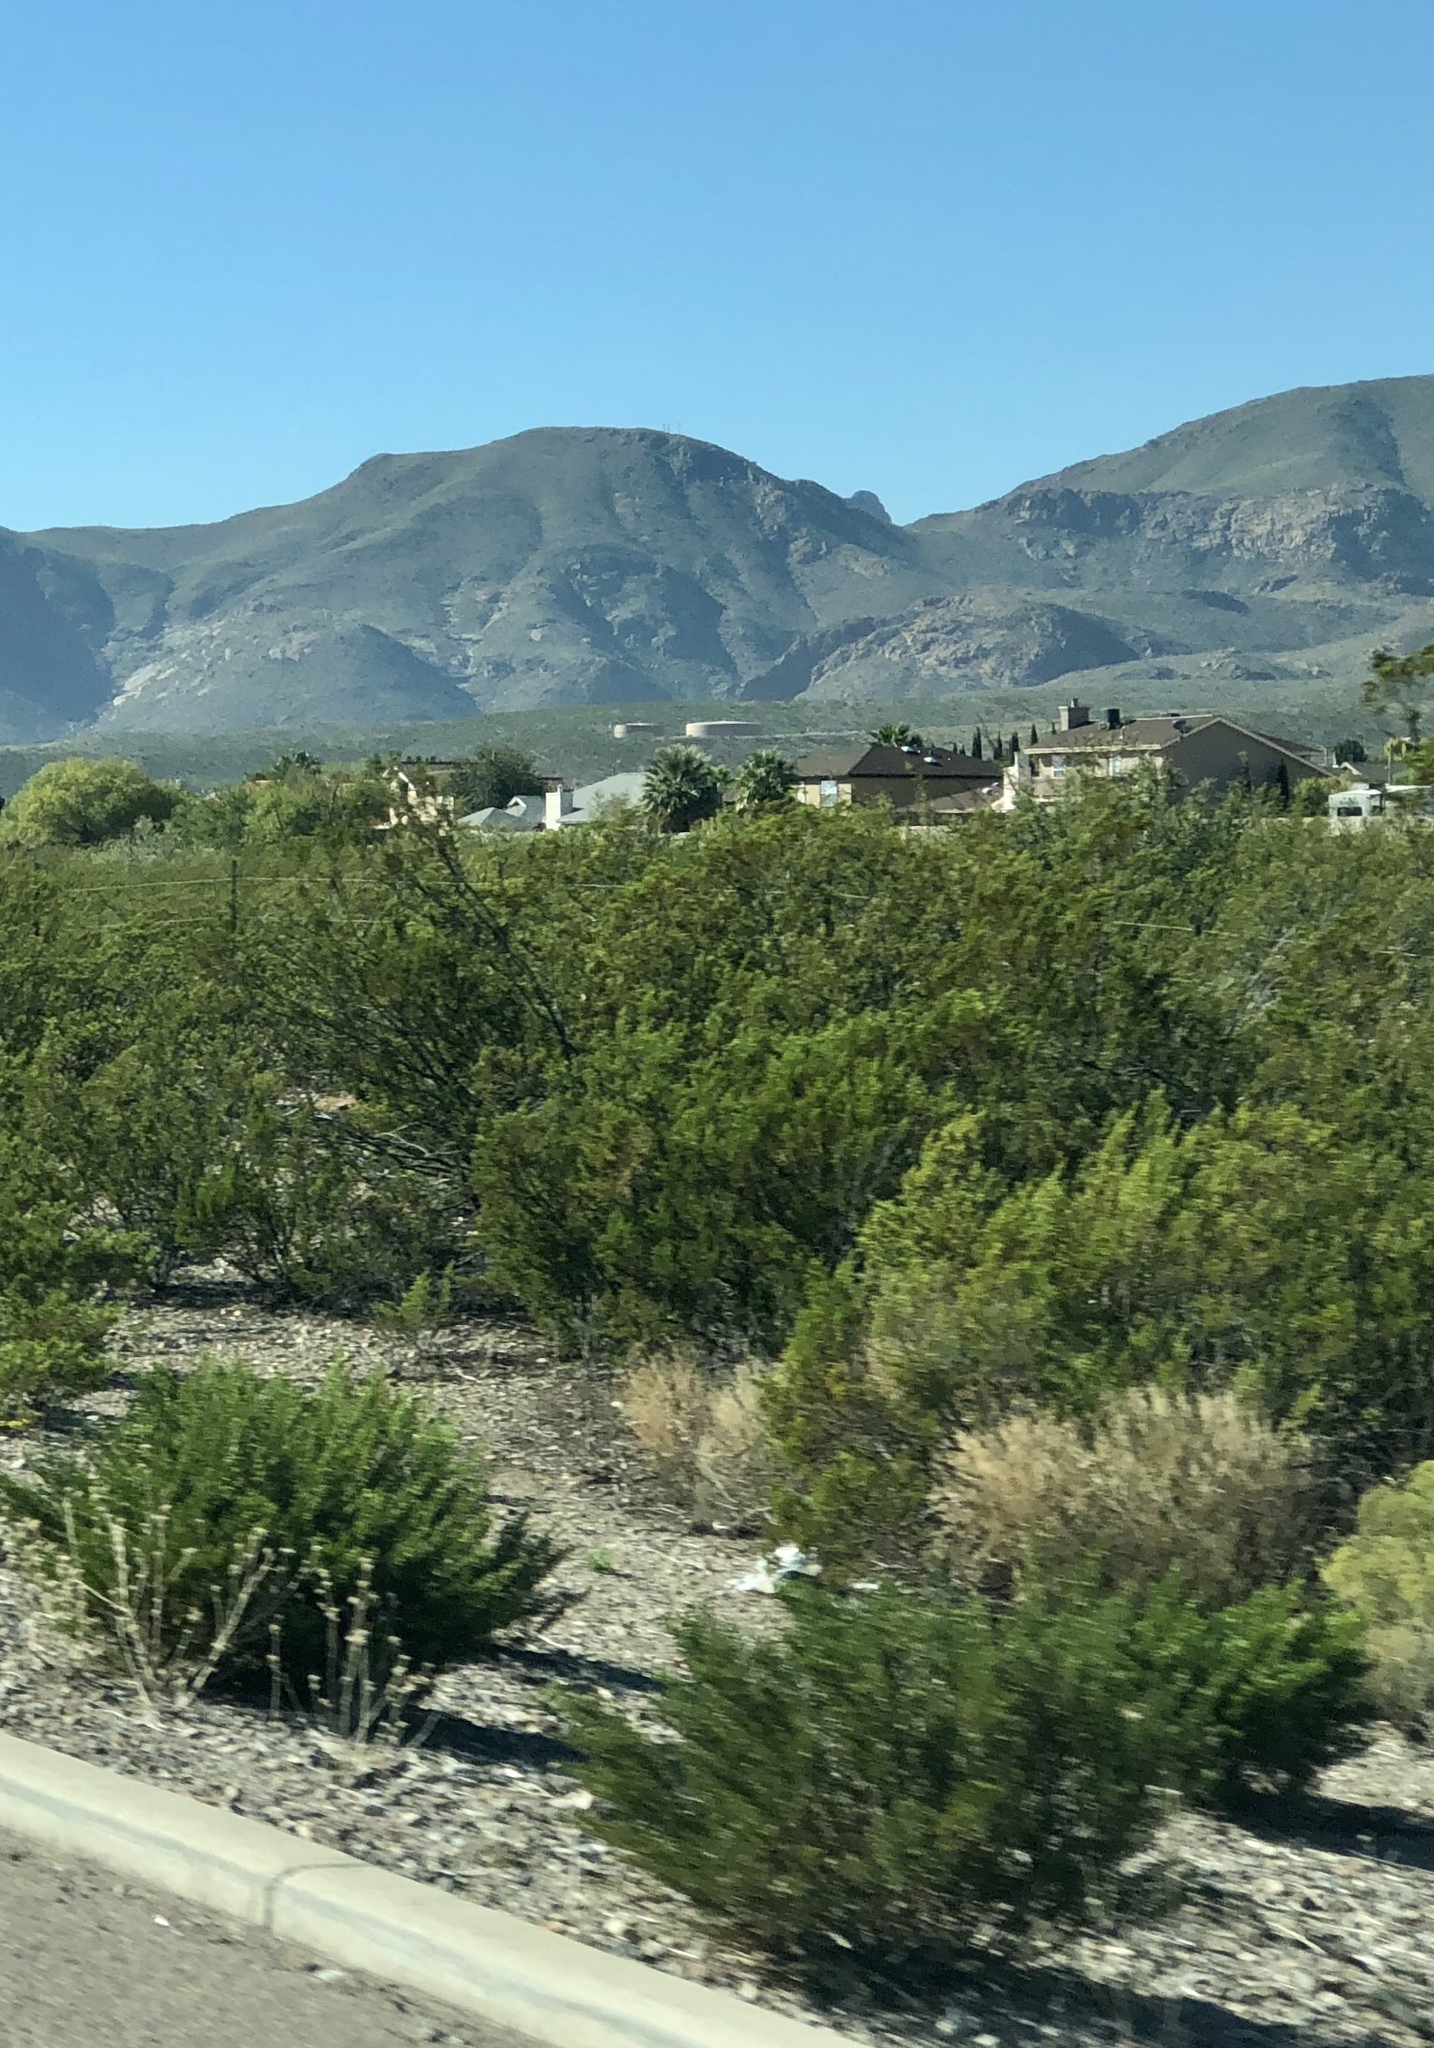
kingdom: Plantae
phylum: Tracheophyta
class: Magnoliopsida
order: Zygophyllales
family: Zygophyllaceae
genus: Larrea
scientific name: Larrea tridentata
